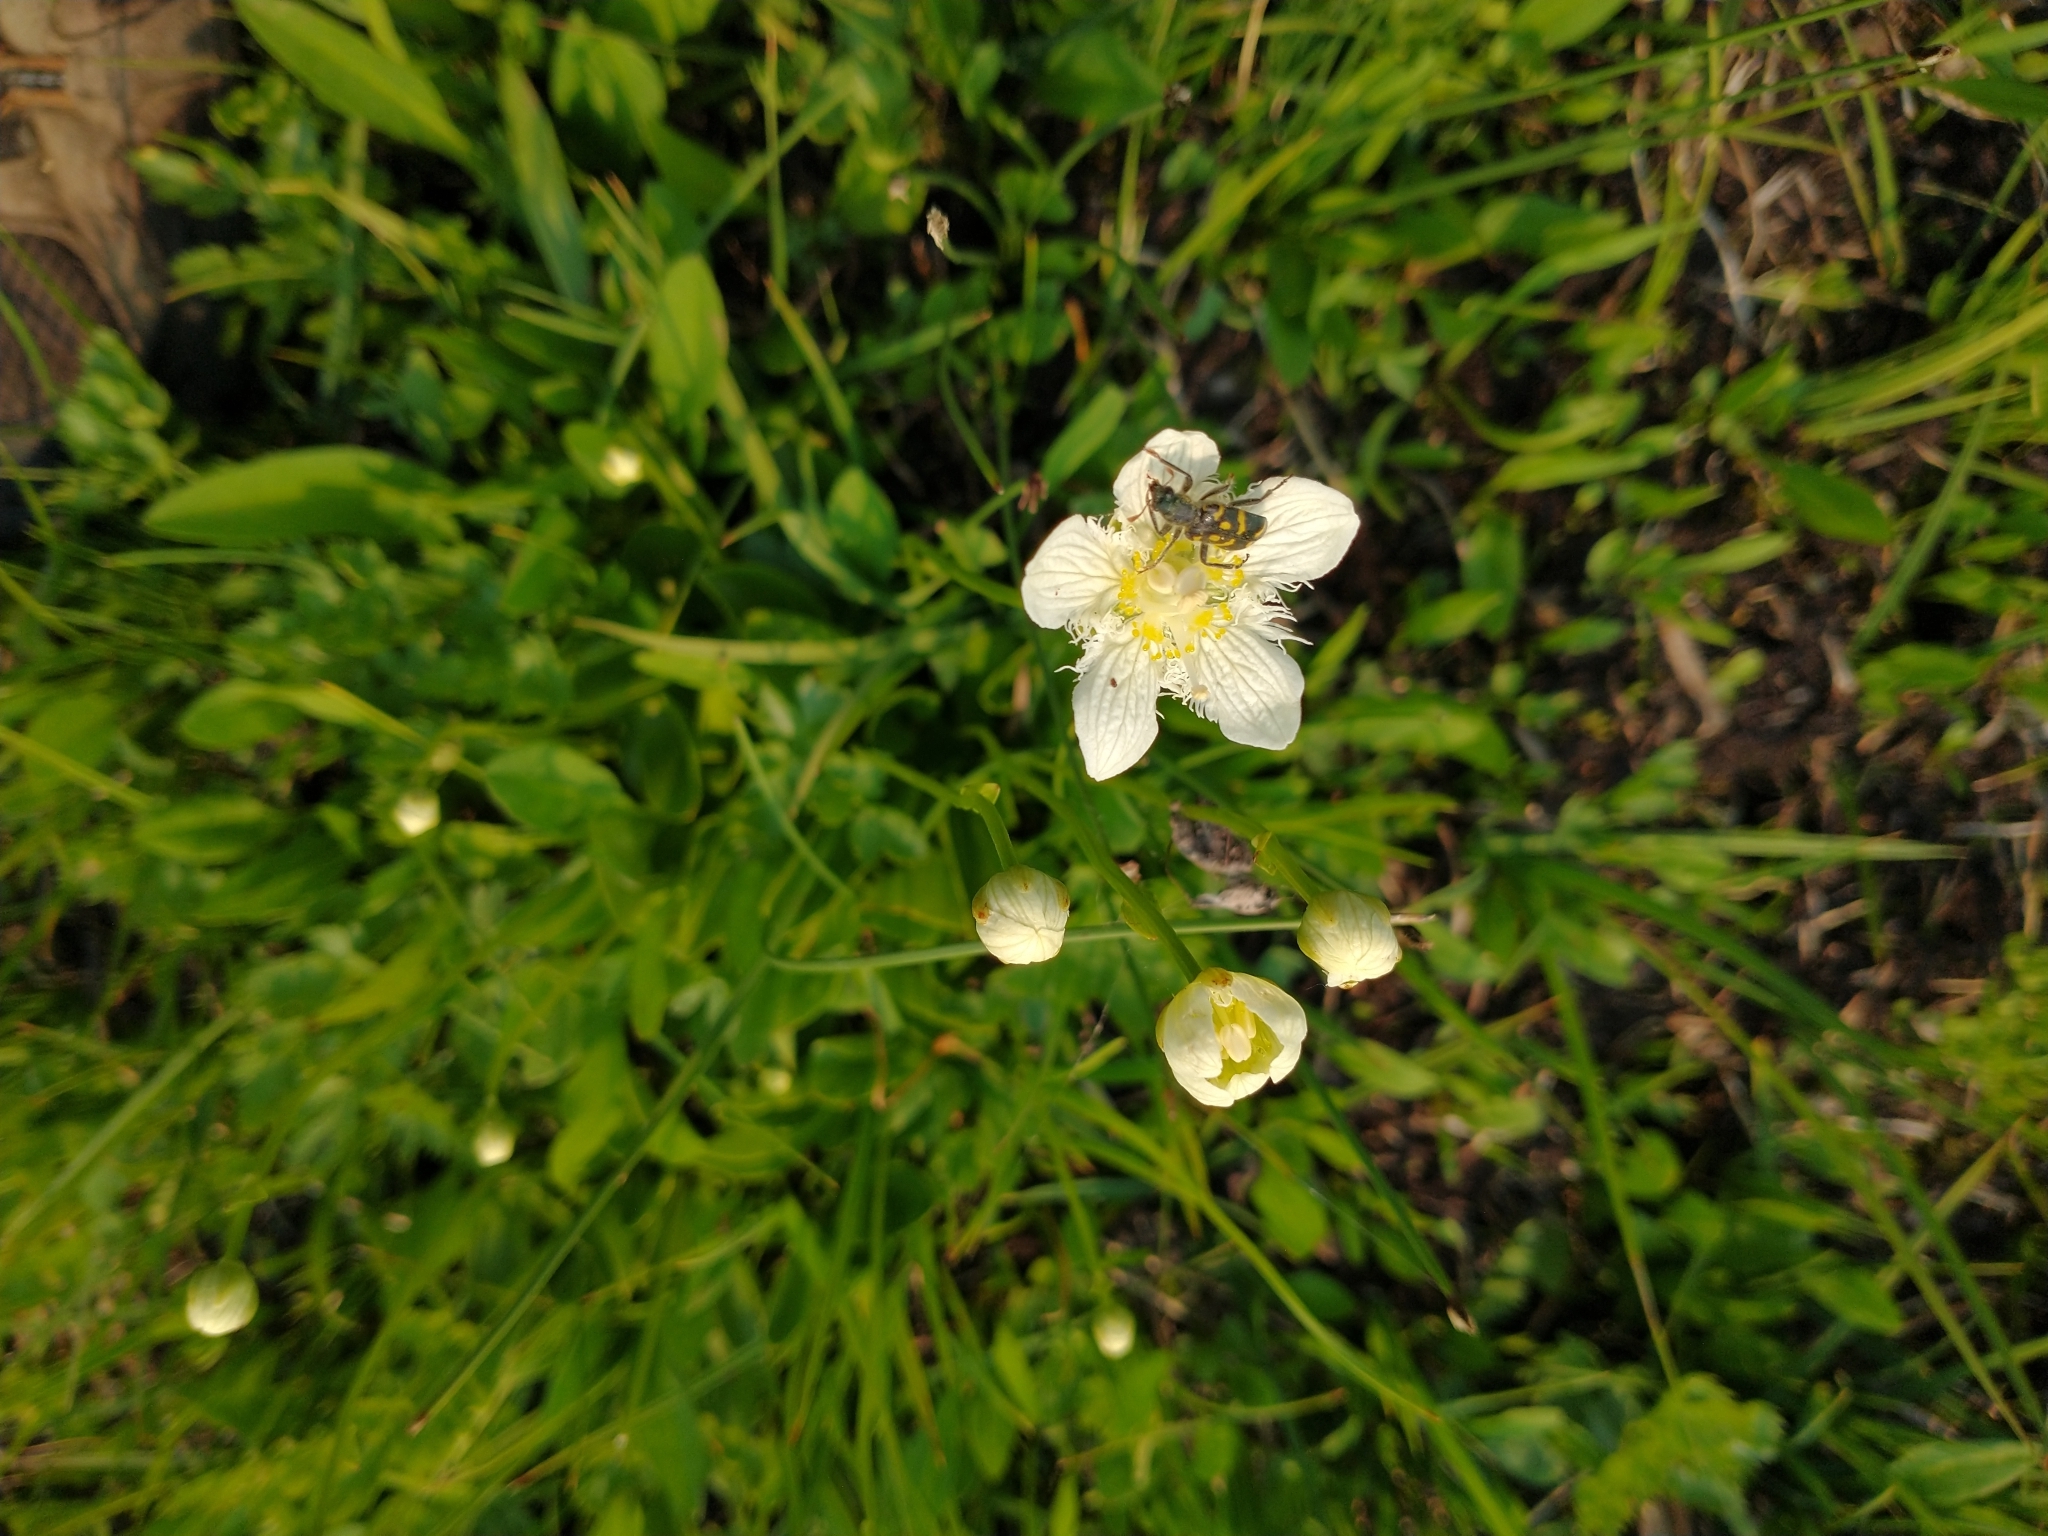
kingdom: Plantae
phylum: Tracheophyta
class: Magnoliopsida
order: Celastrales
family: Parnassiaceae
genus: Parnassia
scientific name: Parnassia cirrata
